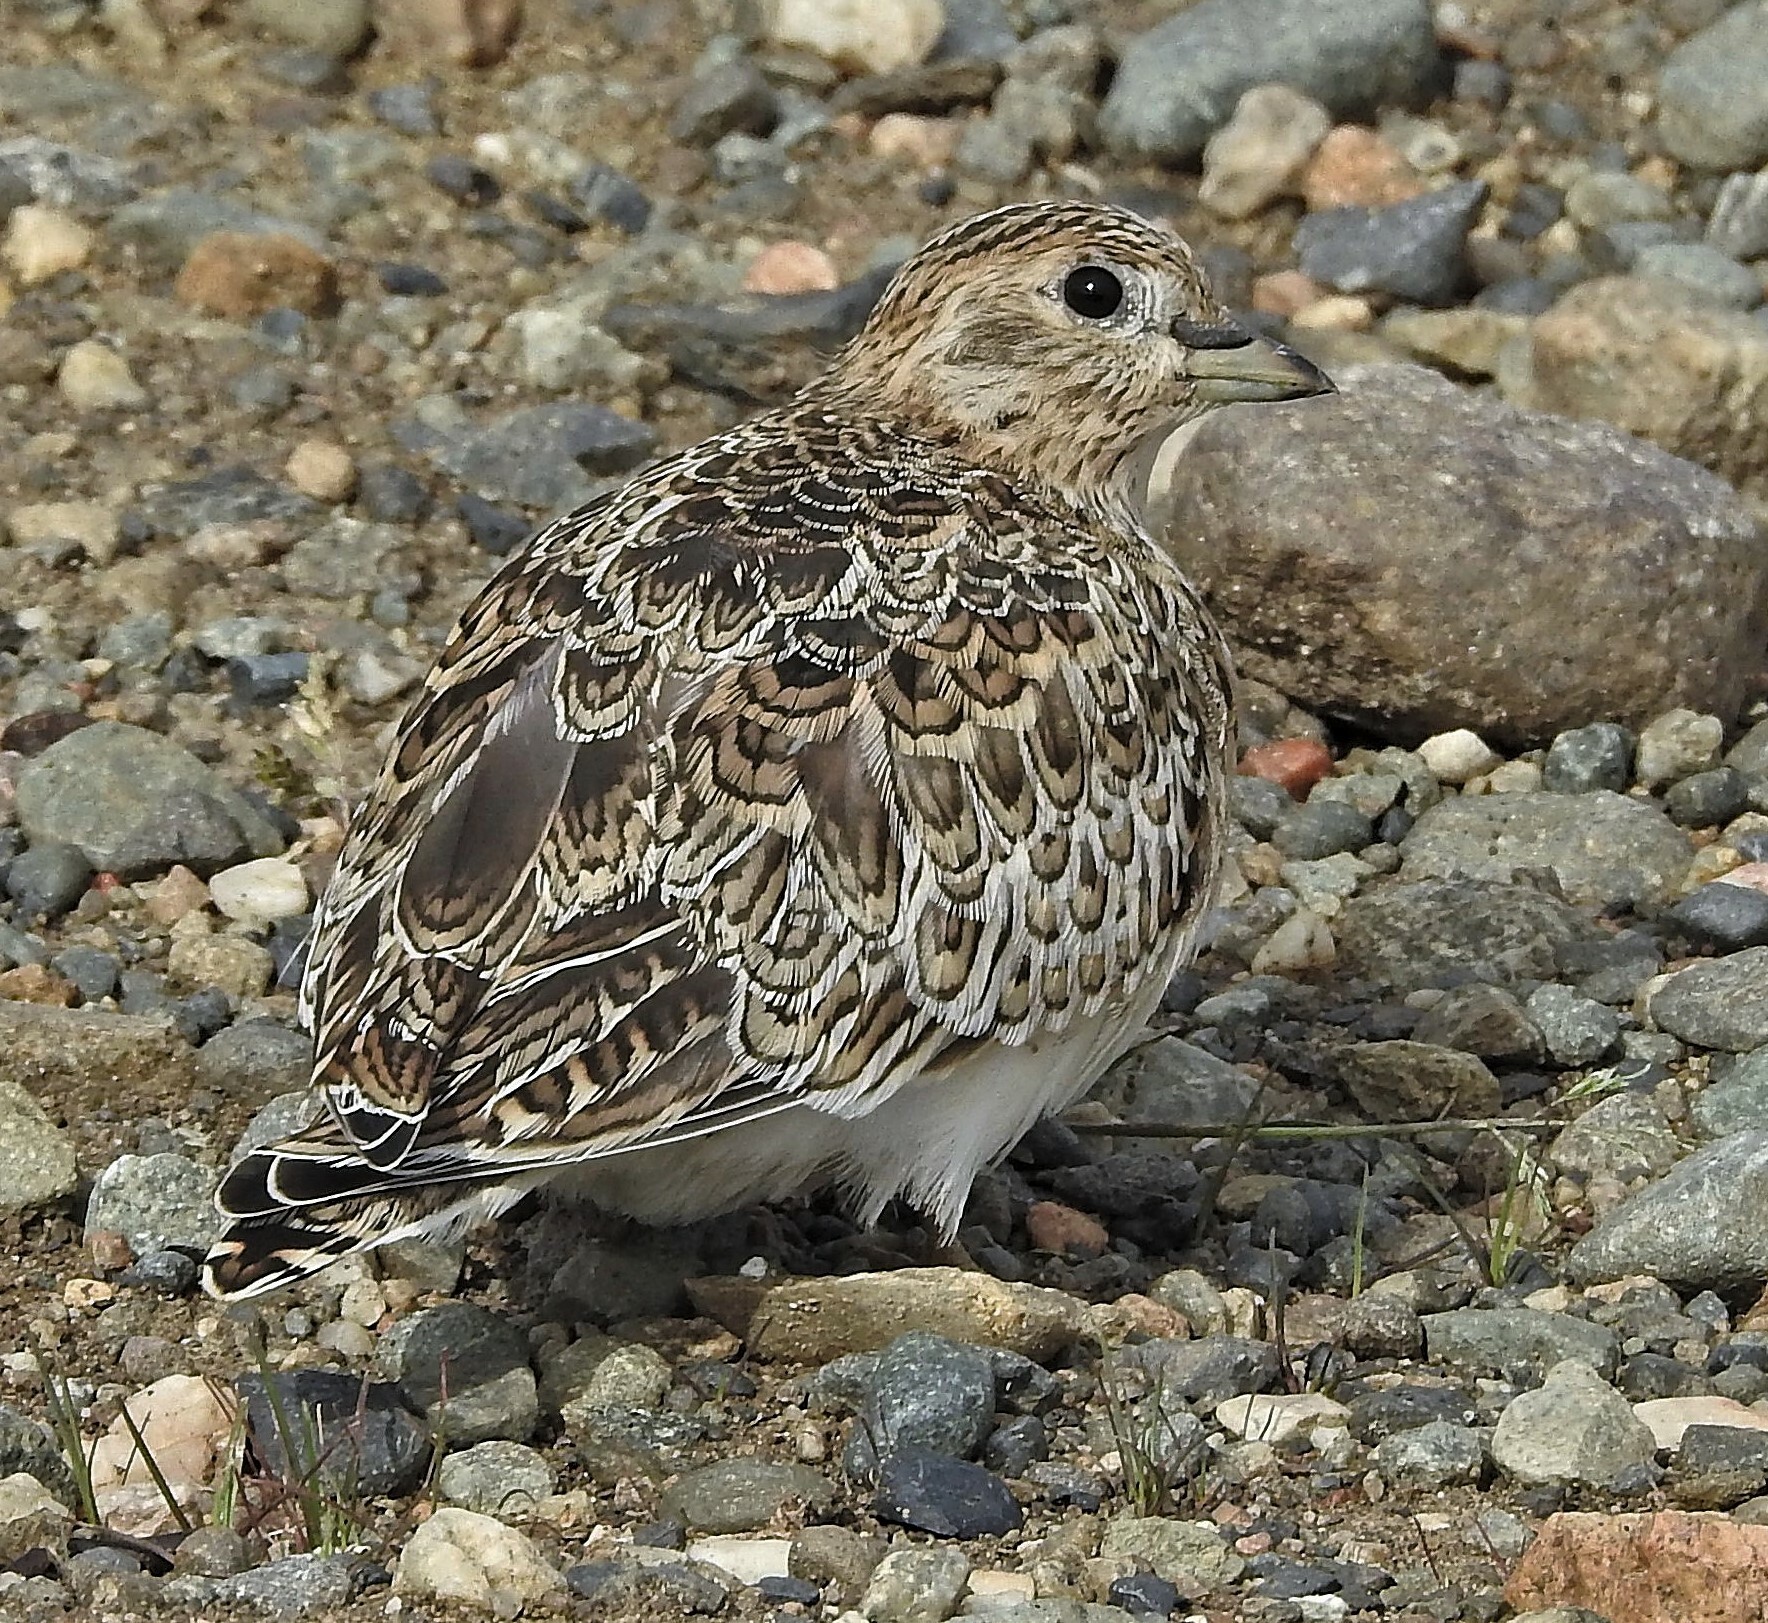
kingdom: Animalia
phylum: Chordata
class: Aves
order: Charadriiformes
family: Thinocoridae
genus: Thinocorus
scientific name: Thinocorus rumicivorus
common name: Least seedsnipe
